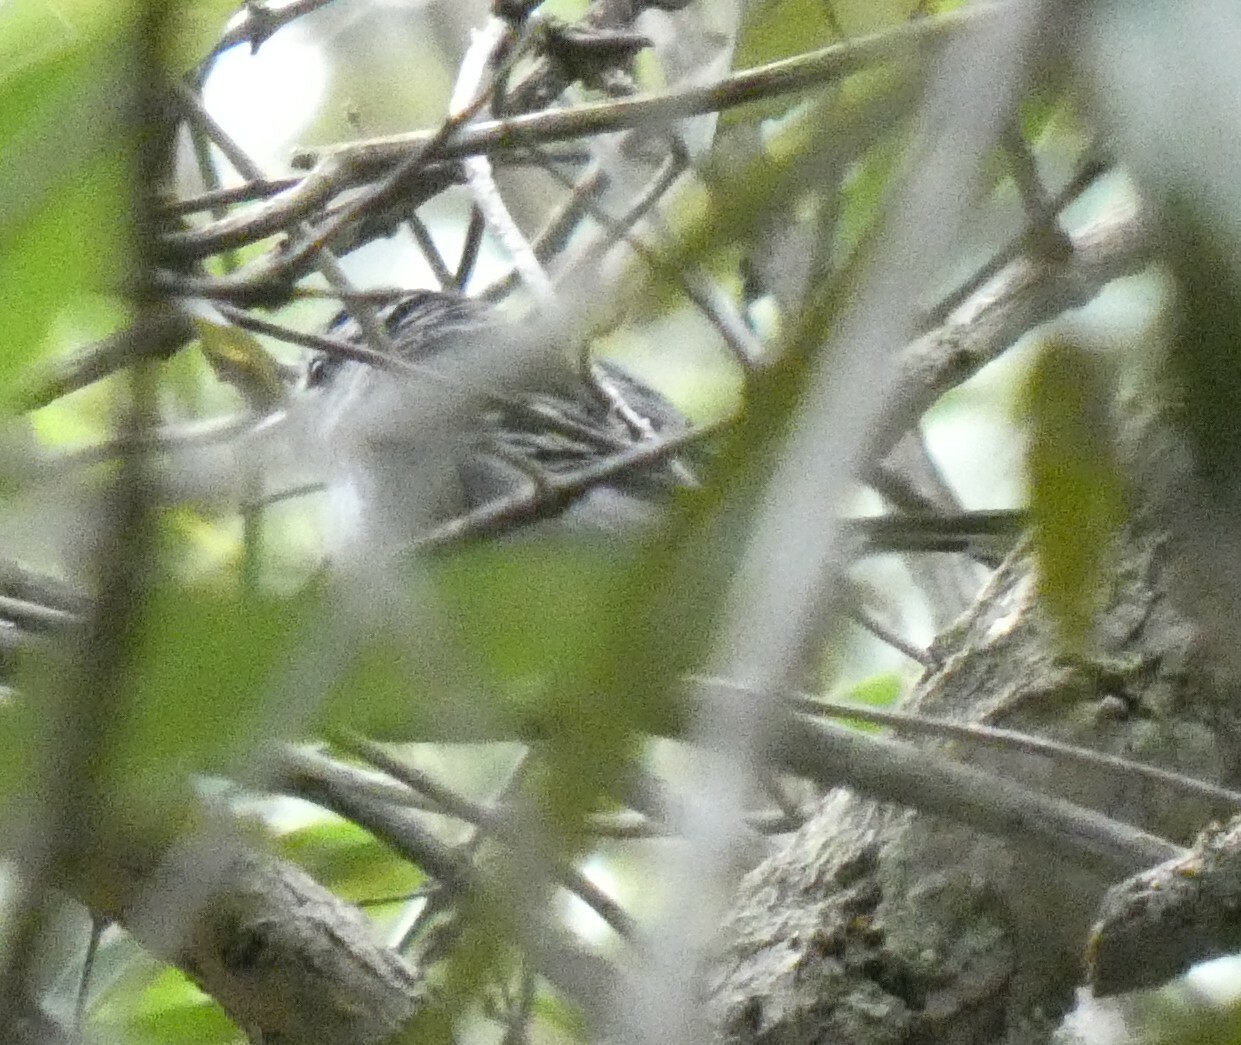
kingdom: Animalia
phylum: Chordata
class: Aves
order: Passeriformes
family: Thamnophilidae
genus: Herpsilochmus
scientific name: Herpsilochmus atricapillus
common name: Black-capped antwren
